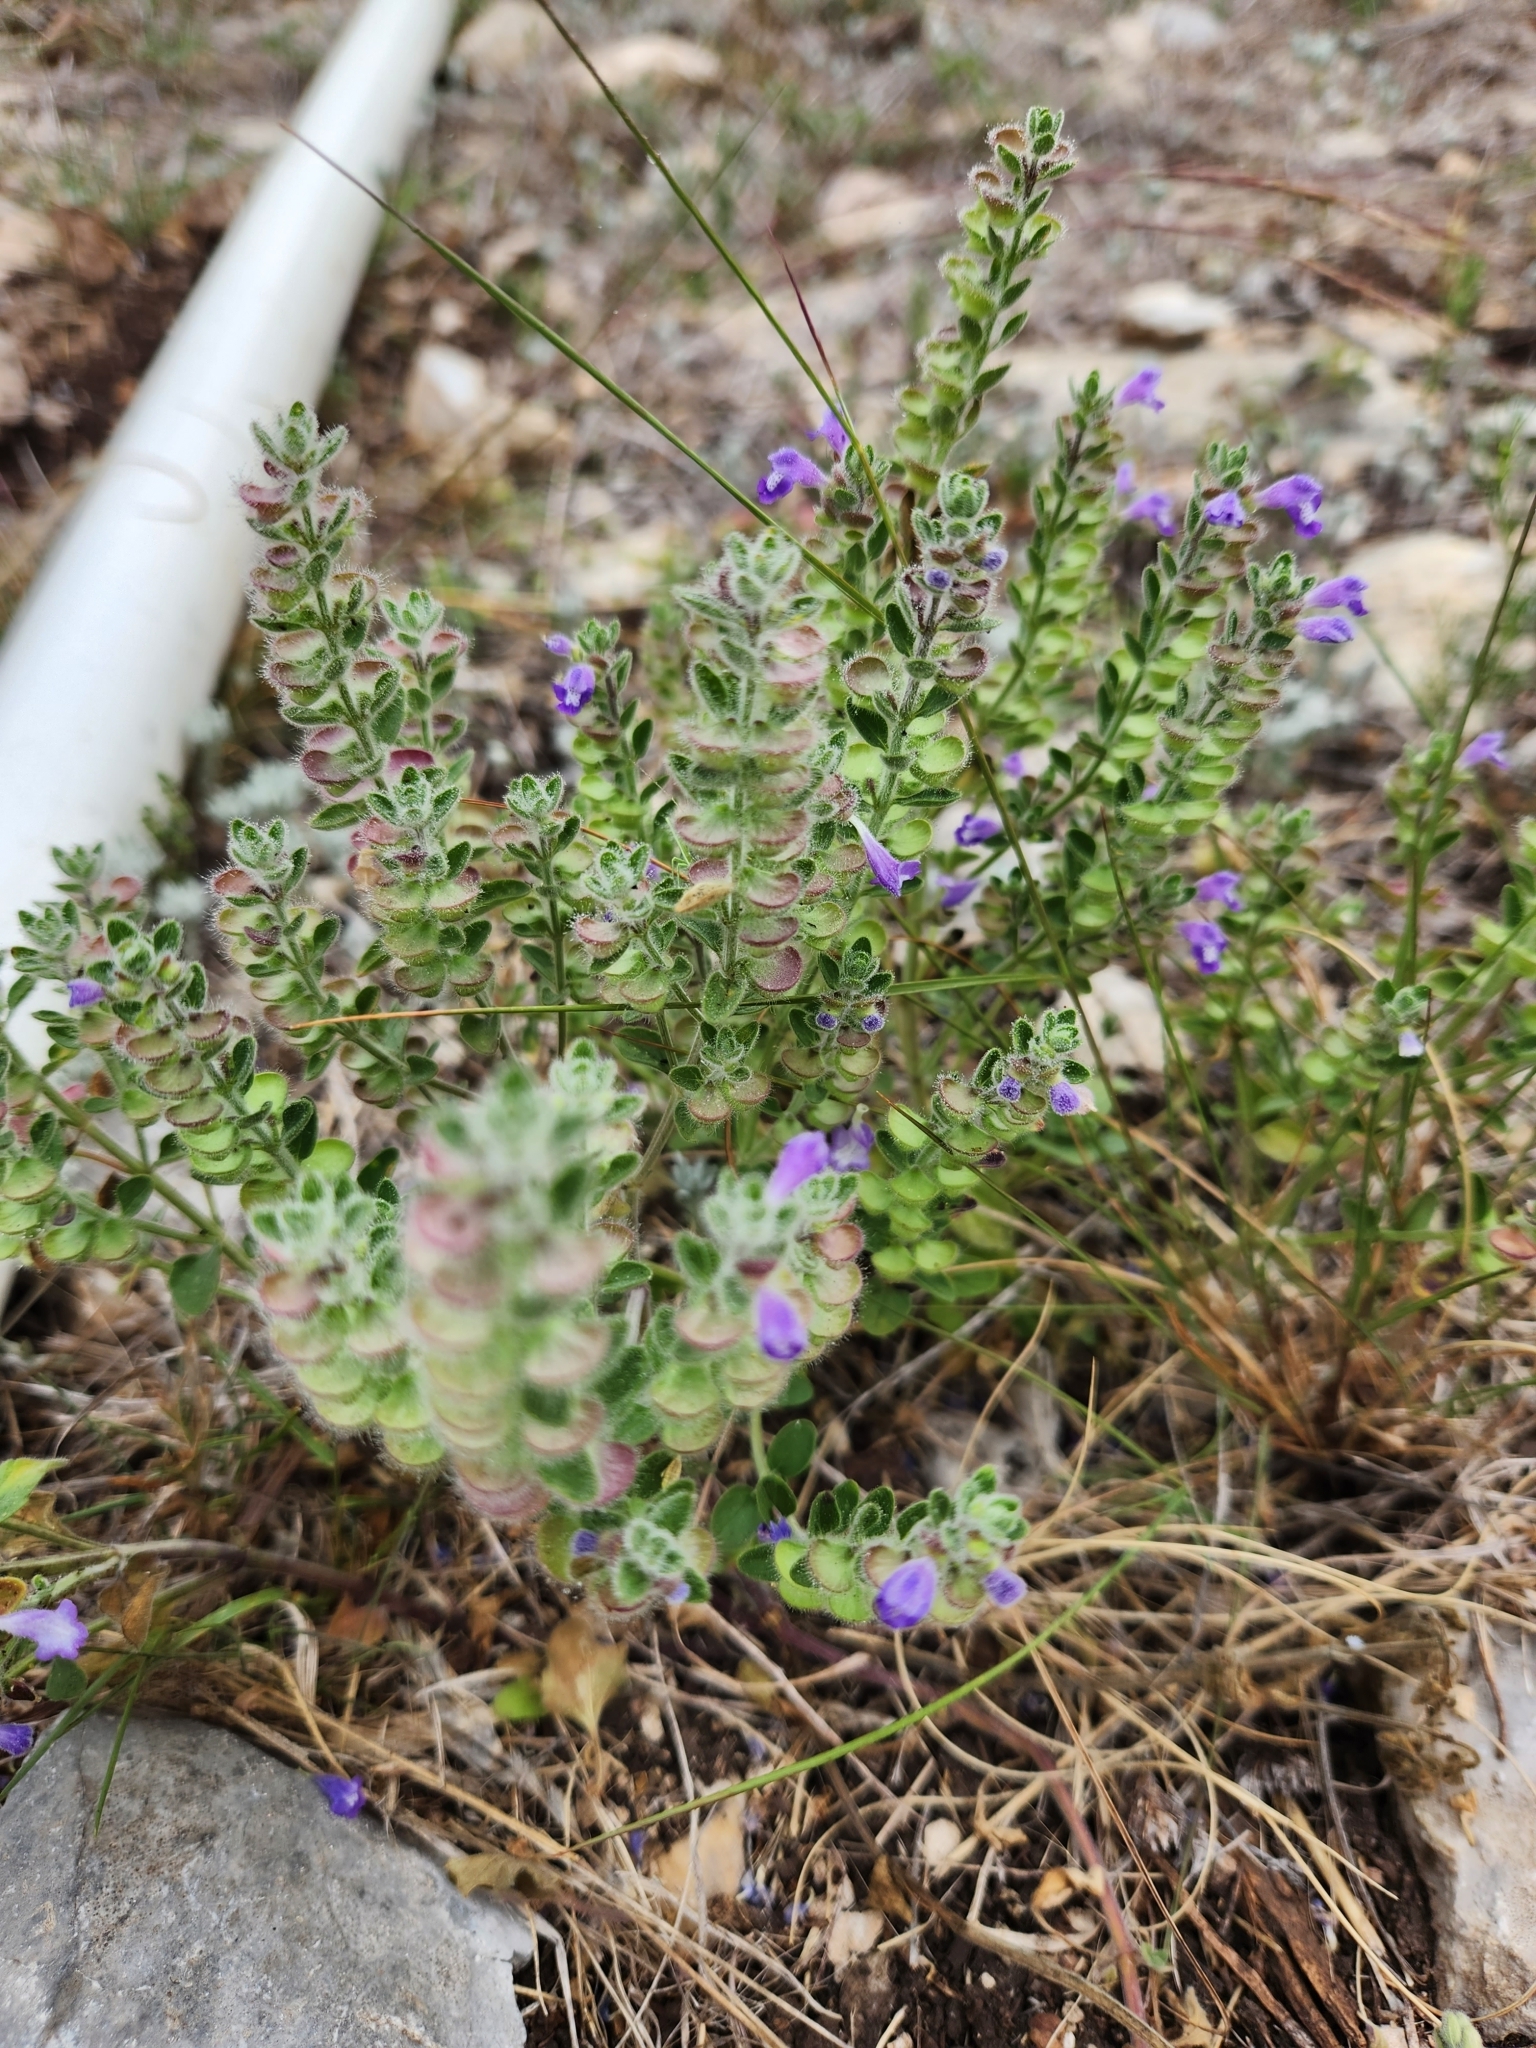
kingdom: Plantae
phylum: Tracheophyta
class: Magnoliopsida
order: Lamiales
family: Lamiaceae
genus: Scutellaria
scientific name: Scutellaria drummondii
